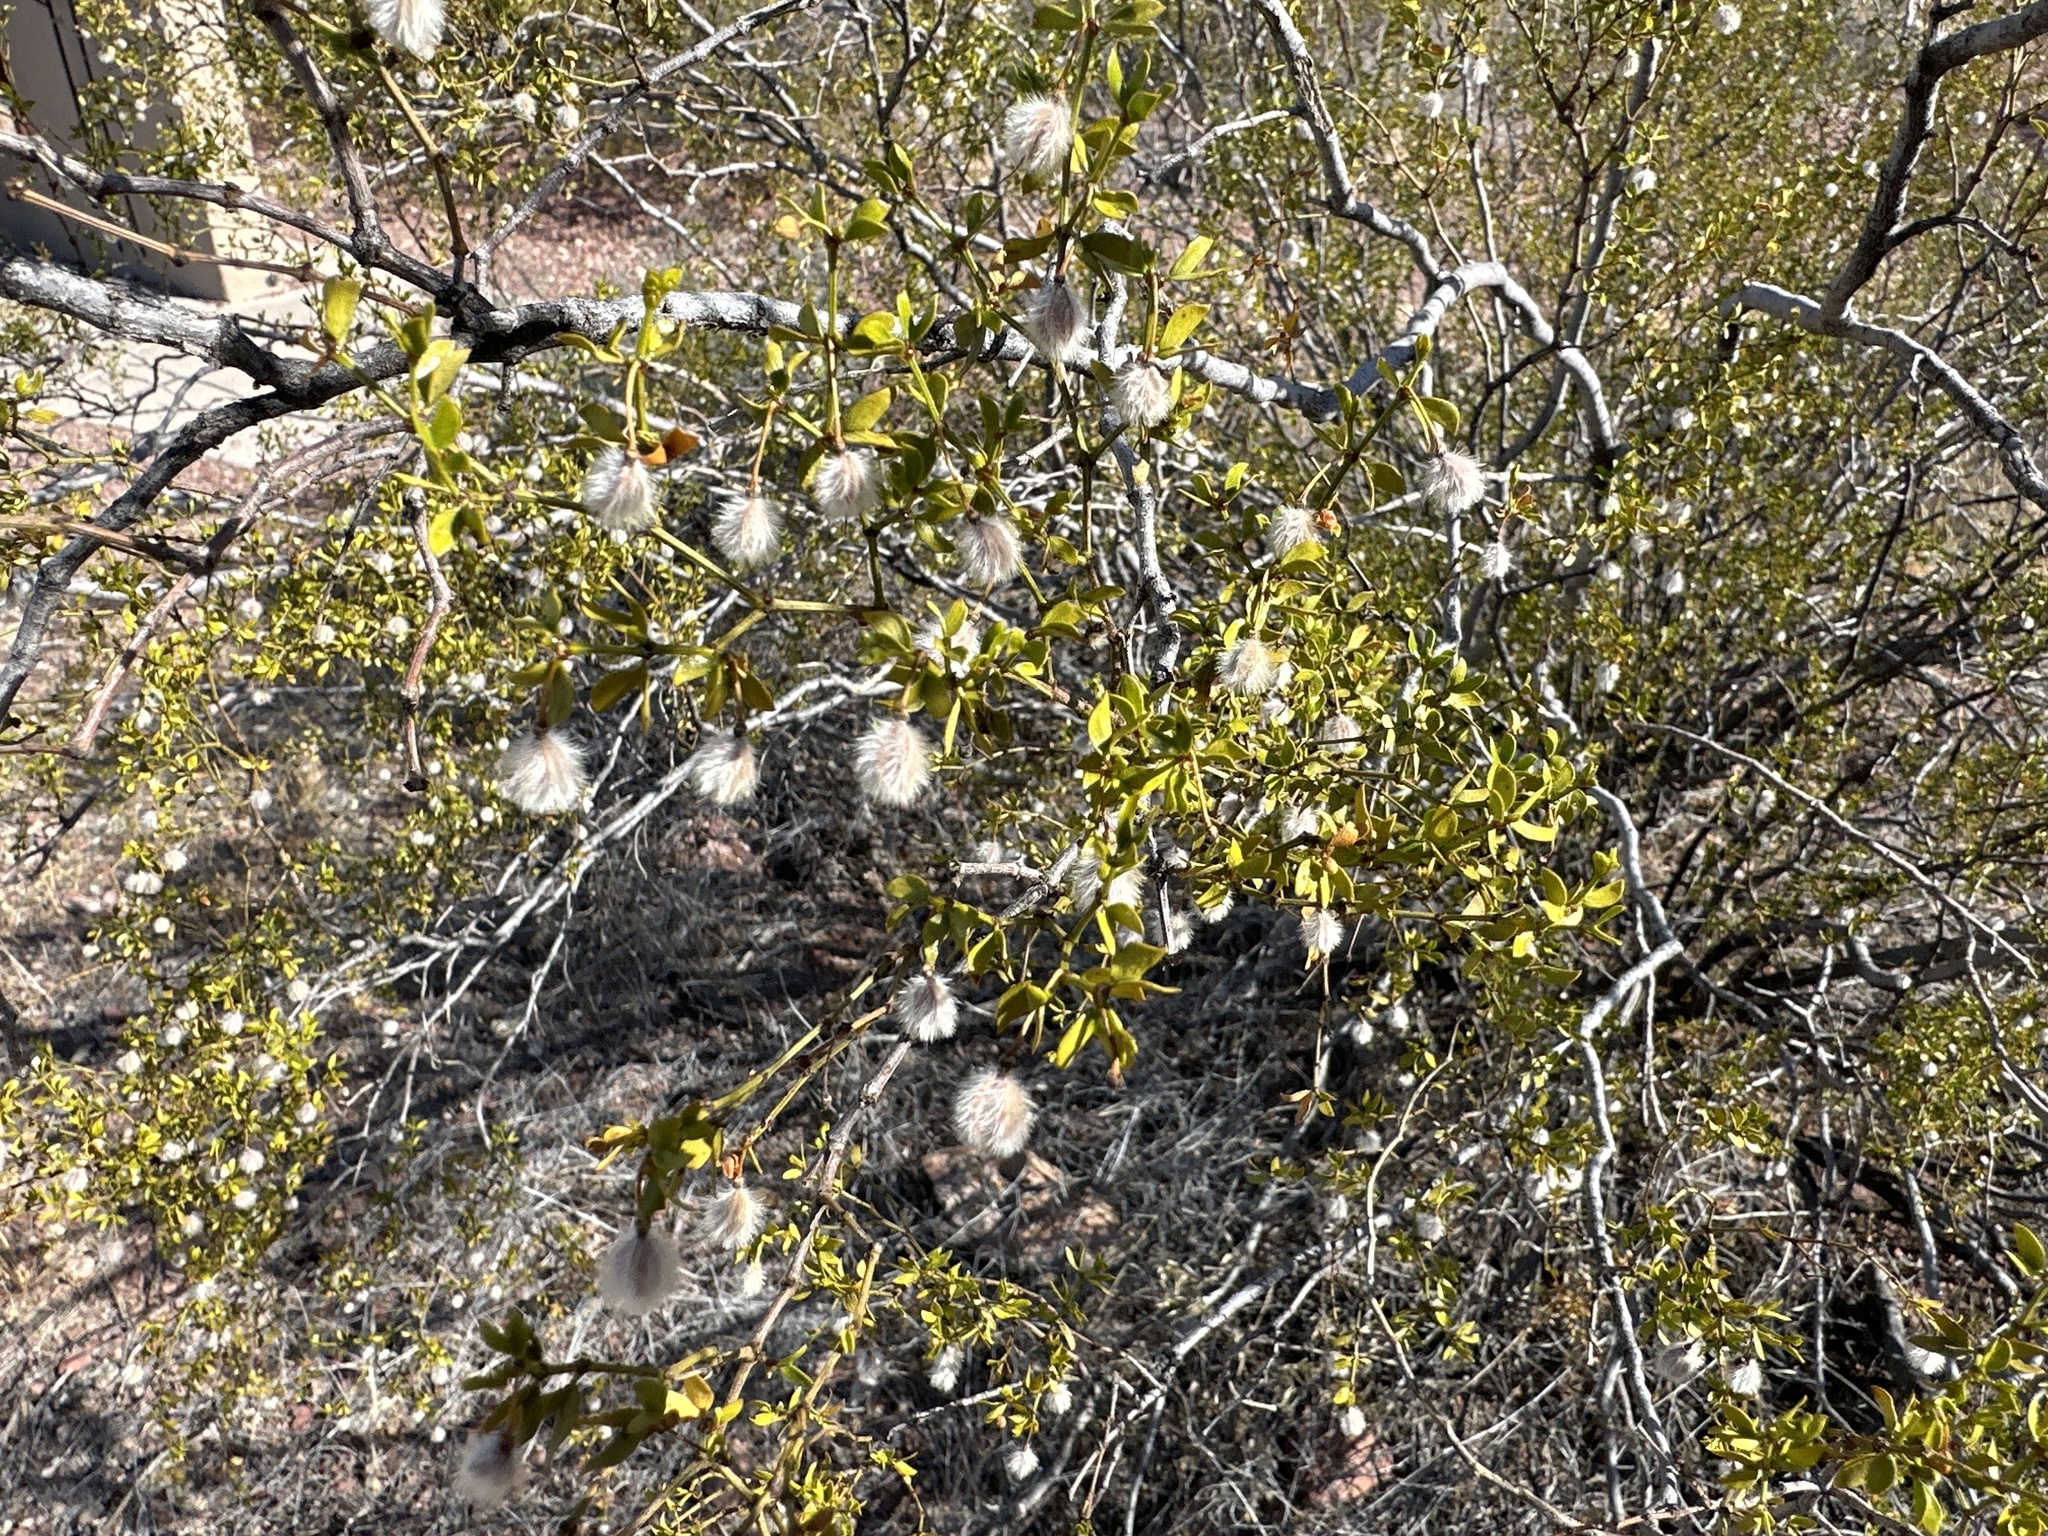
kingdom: Plantae
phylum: Tracheophyta
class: Magnoliopsida
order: Zygophyllales
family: Zygophyllaceae
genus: Larrea
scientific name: Larrea tridentata
